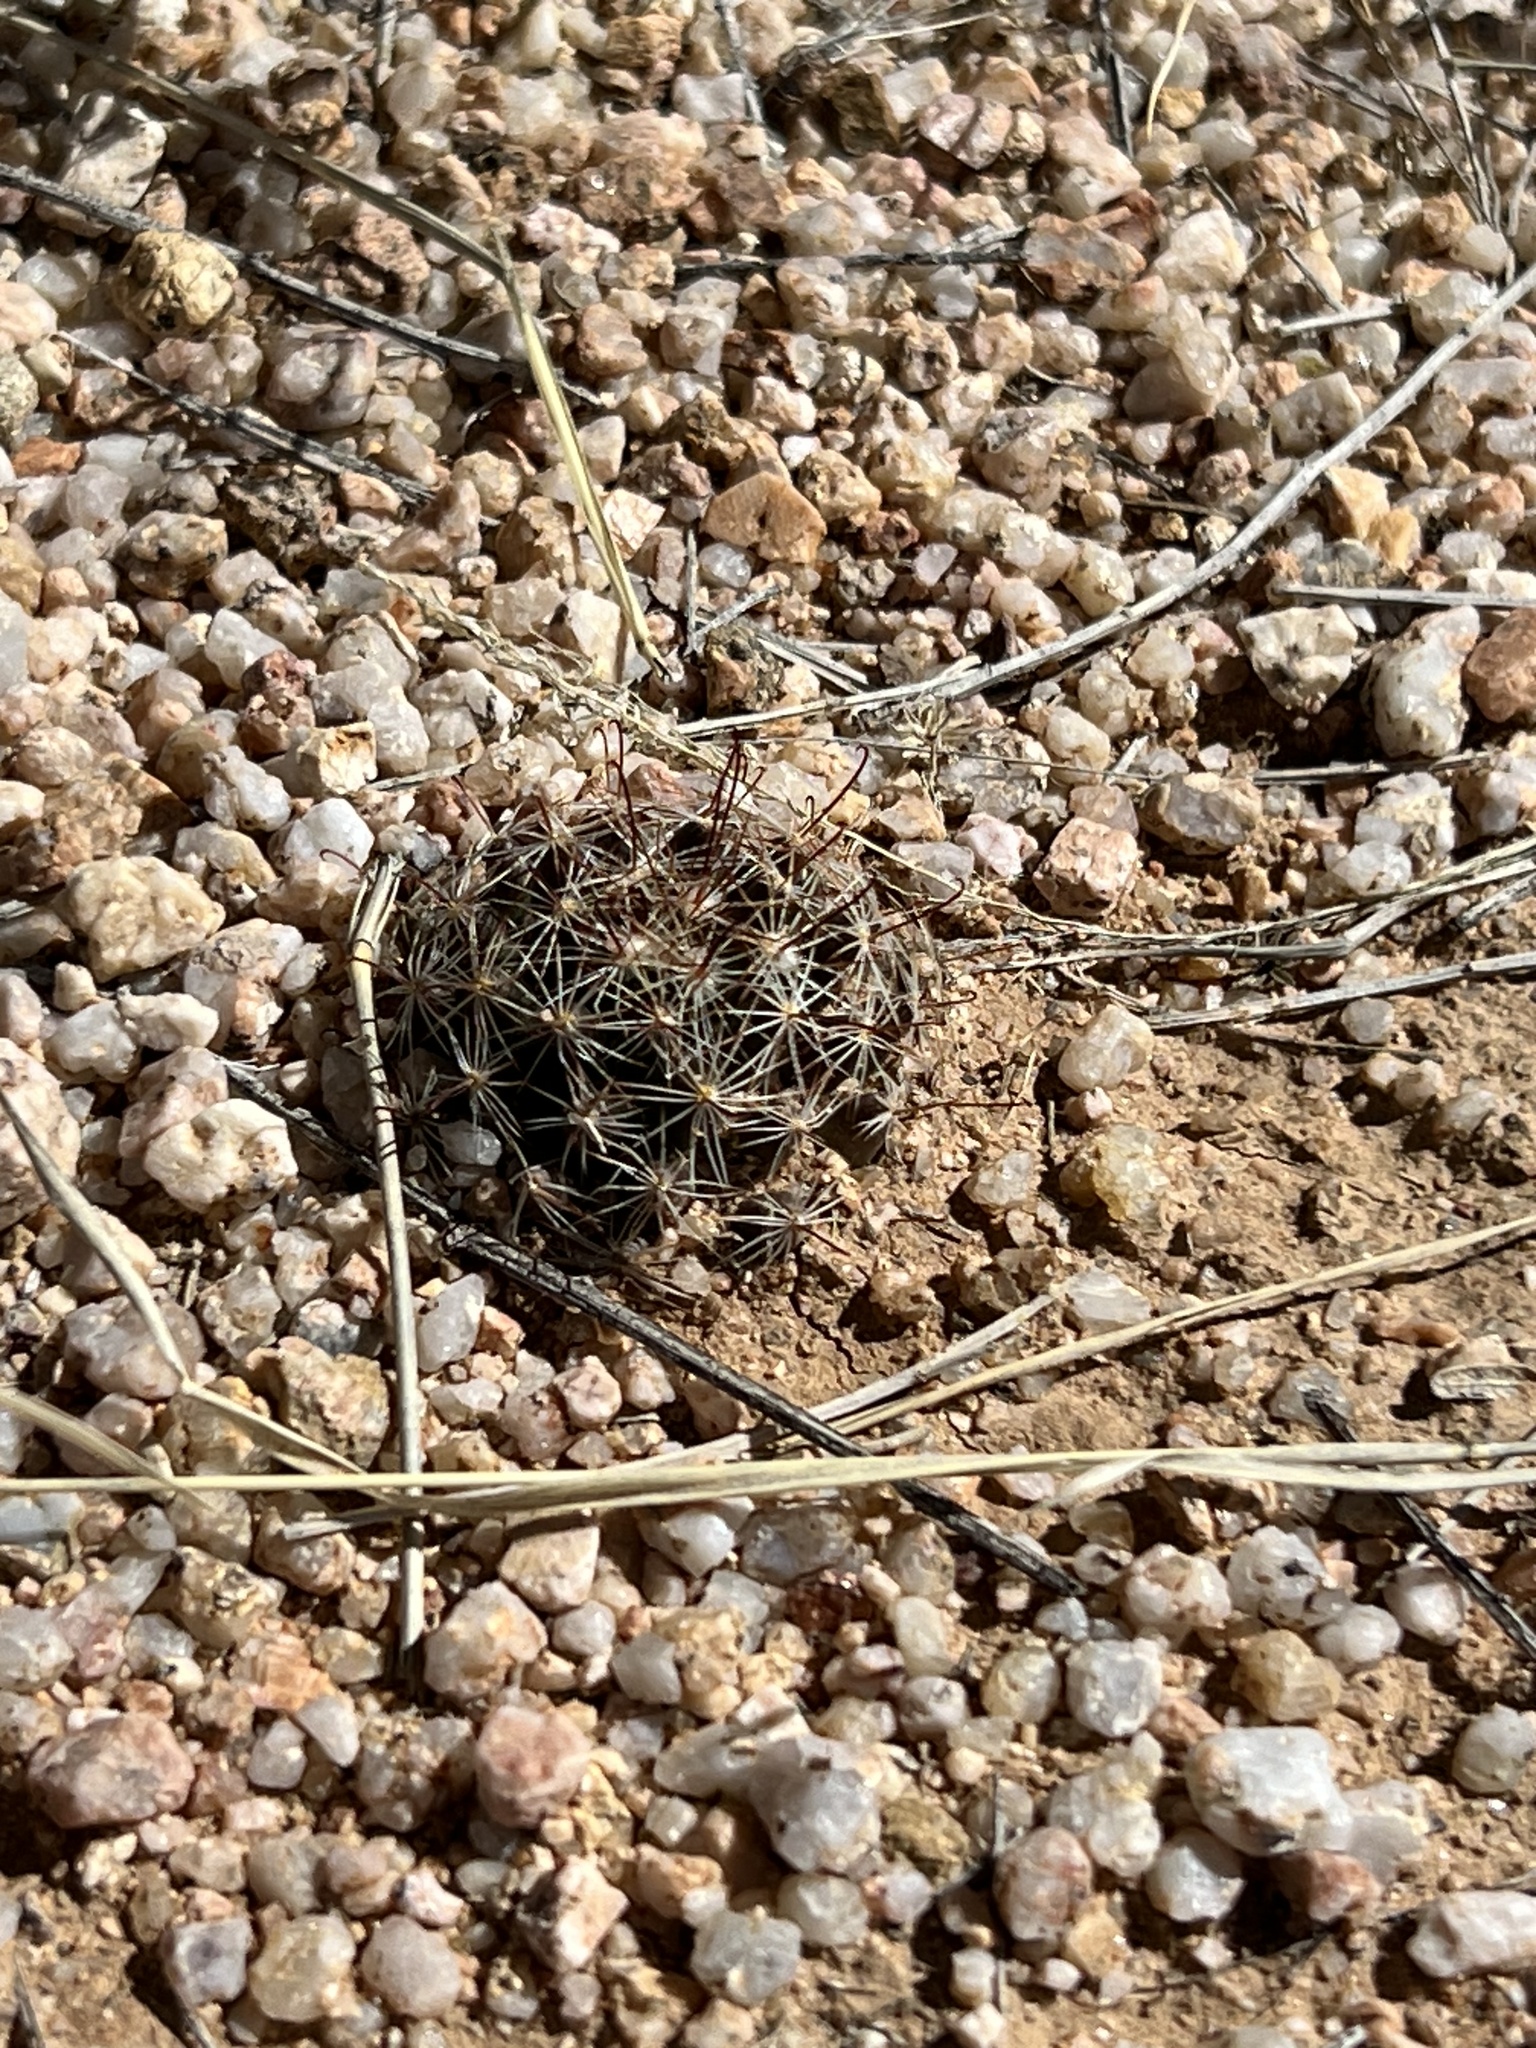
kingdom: Plantae
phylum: Tracheophyta
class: Magnoliopsida
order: Caryophyllales
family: Cactaceae
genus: Cochemiea
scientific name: Cochemiea wrightii
